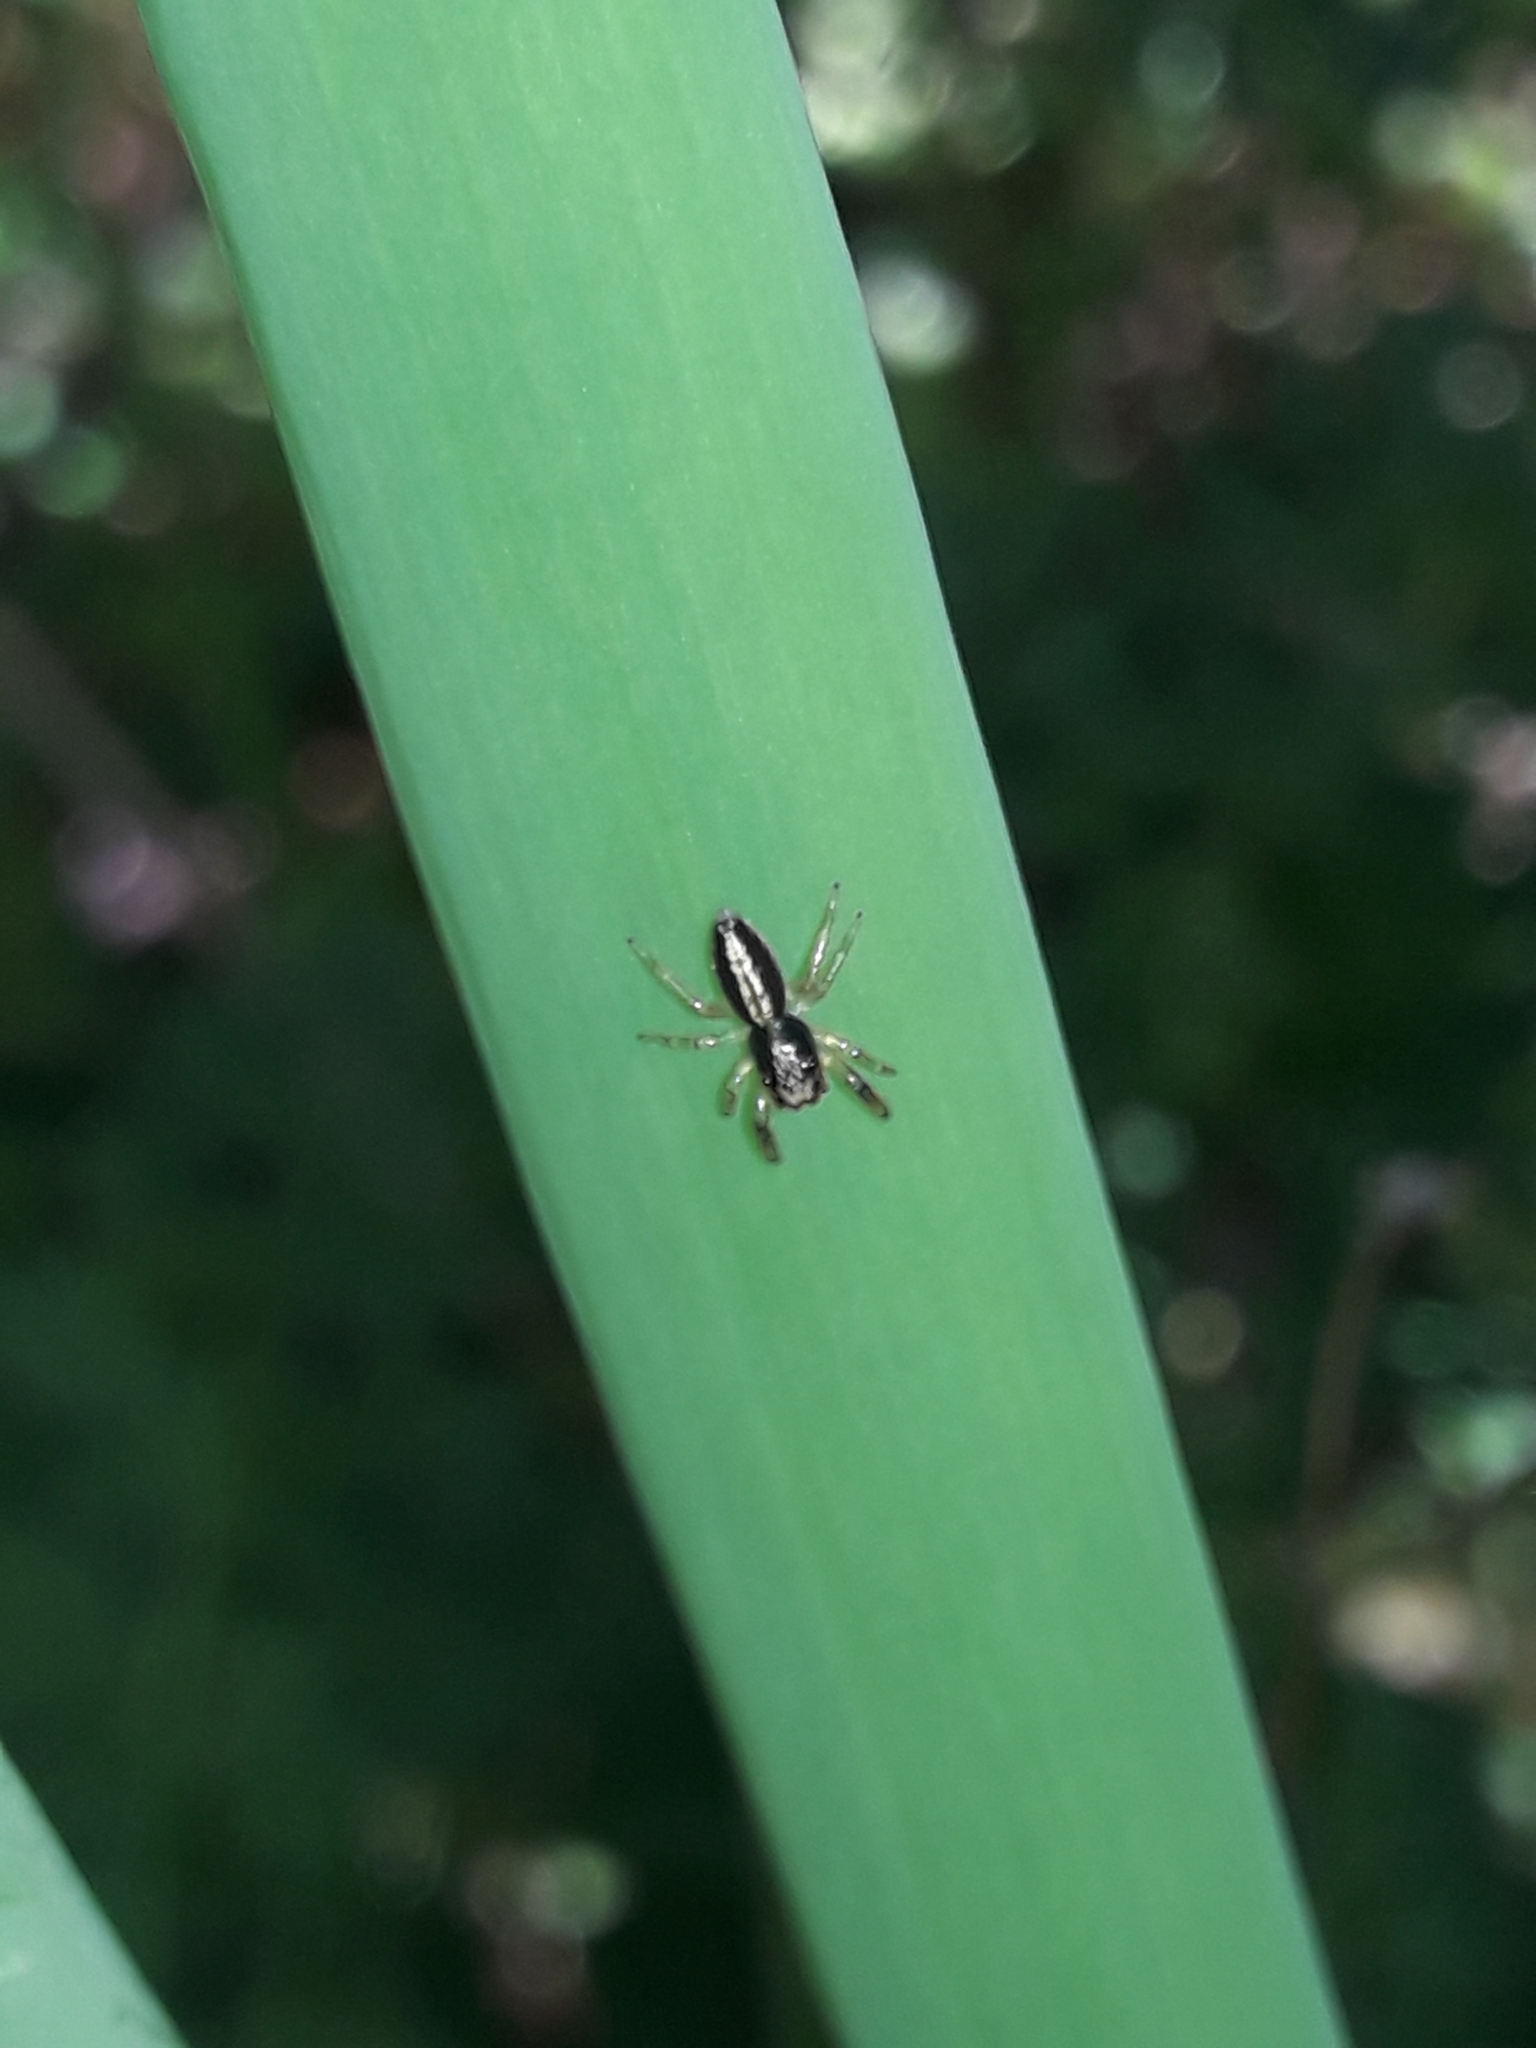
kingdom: Animalia
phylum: Arthropoda
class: Arachnida
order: Araneae
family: Salticidae
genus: Trite
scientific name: Trite planiceps
